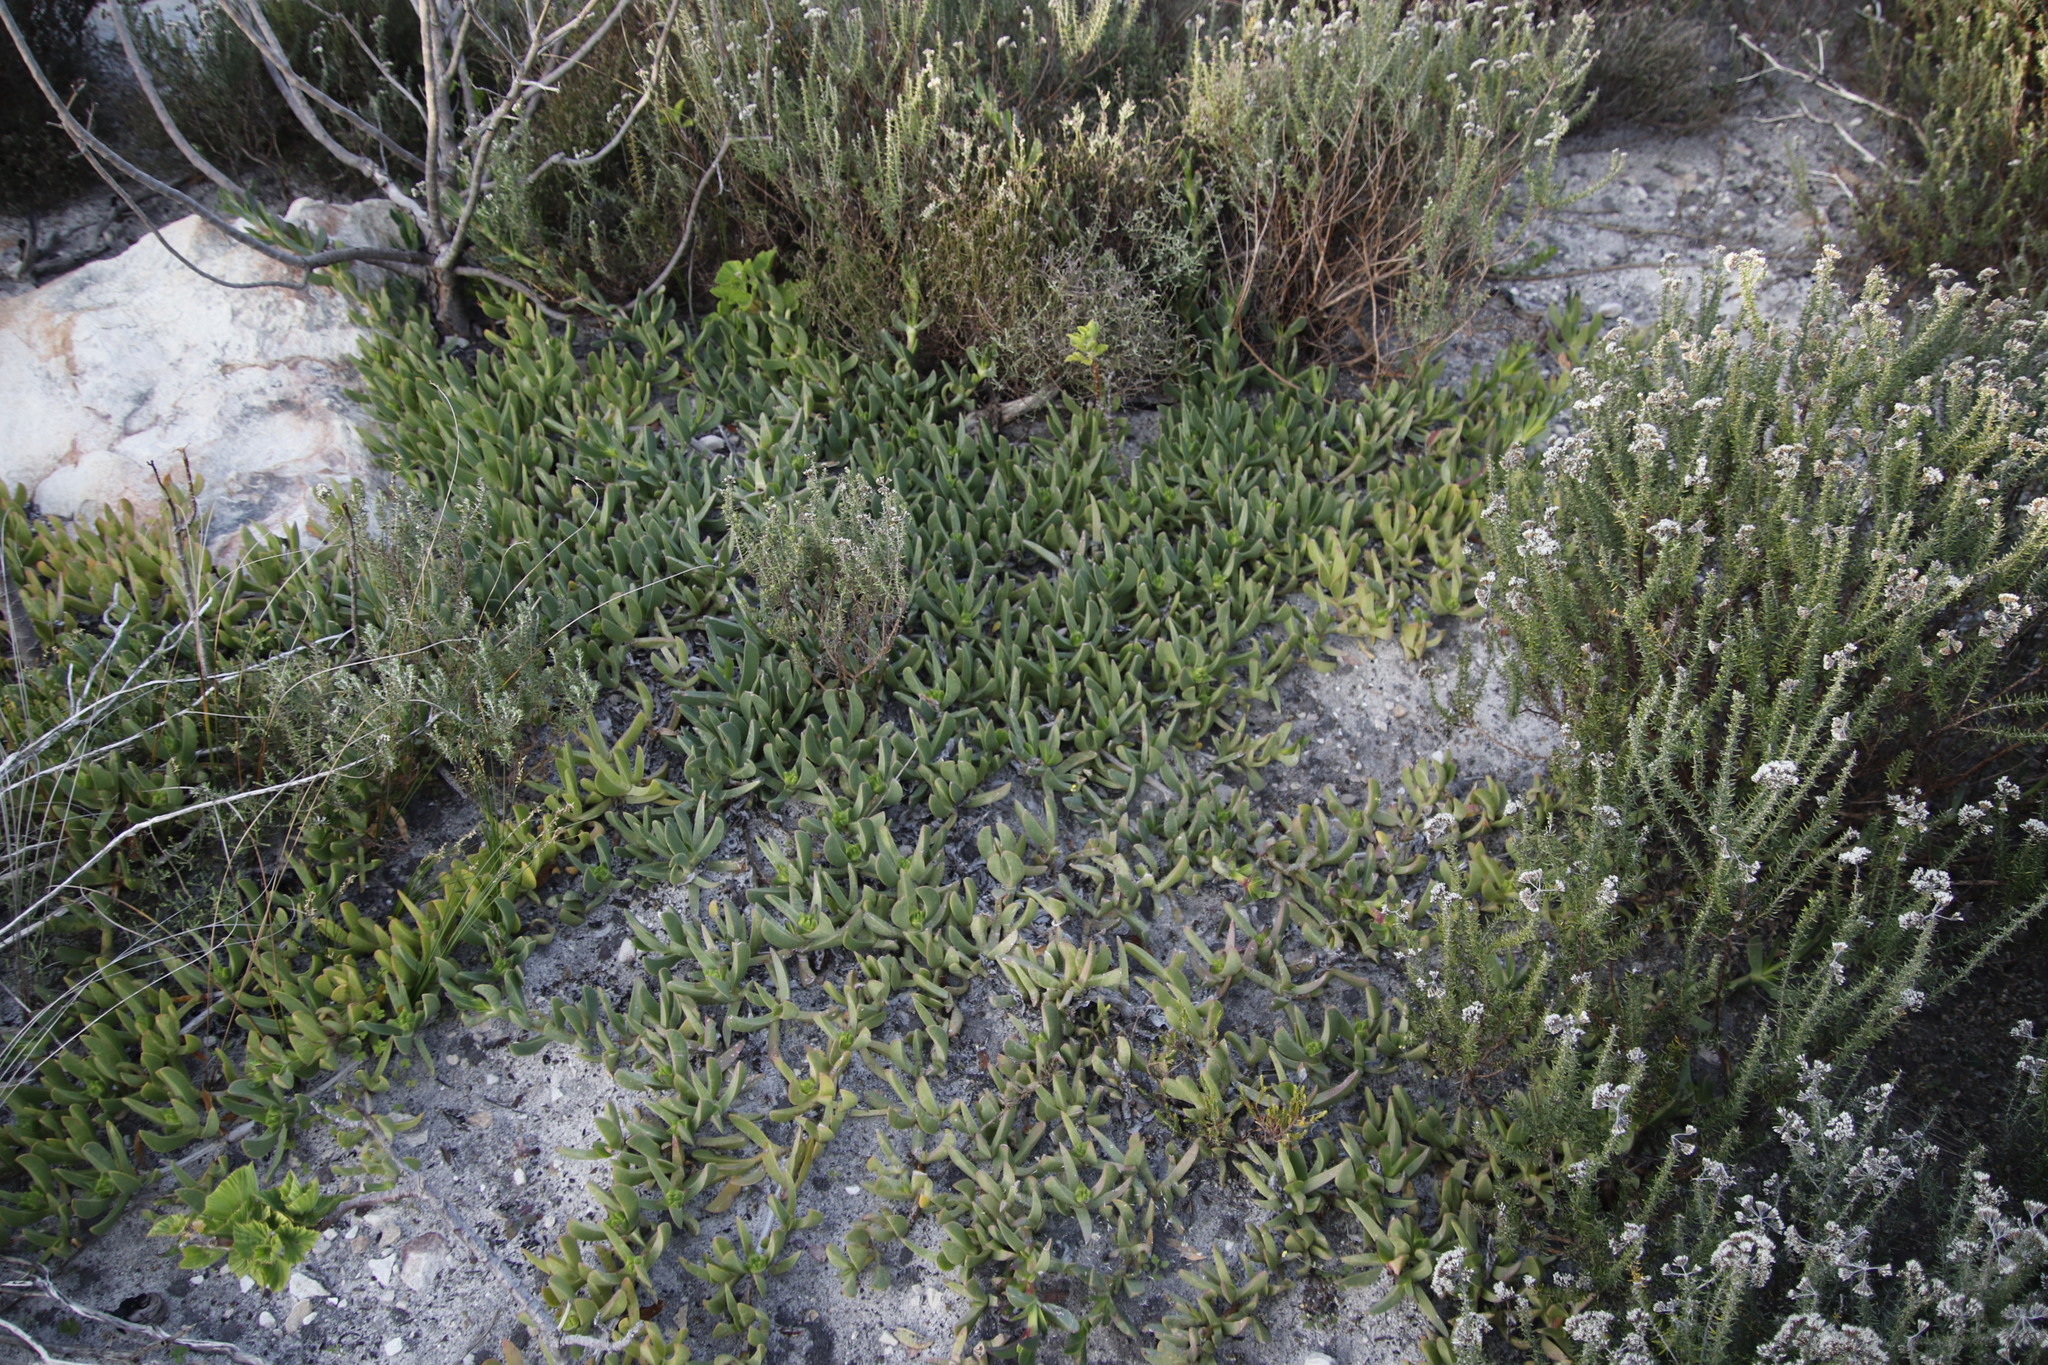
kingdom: Plantae
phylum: Tracheophyta
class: Magnoliopsida
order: Caryophyllales
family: Aizoaceae
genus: Carpobrotus
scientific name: Carpobrotus acinaciformis
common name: Sally-my-handsome
